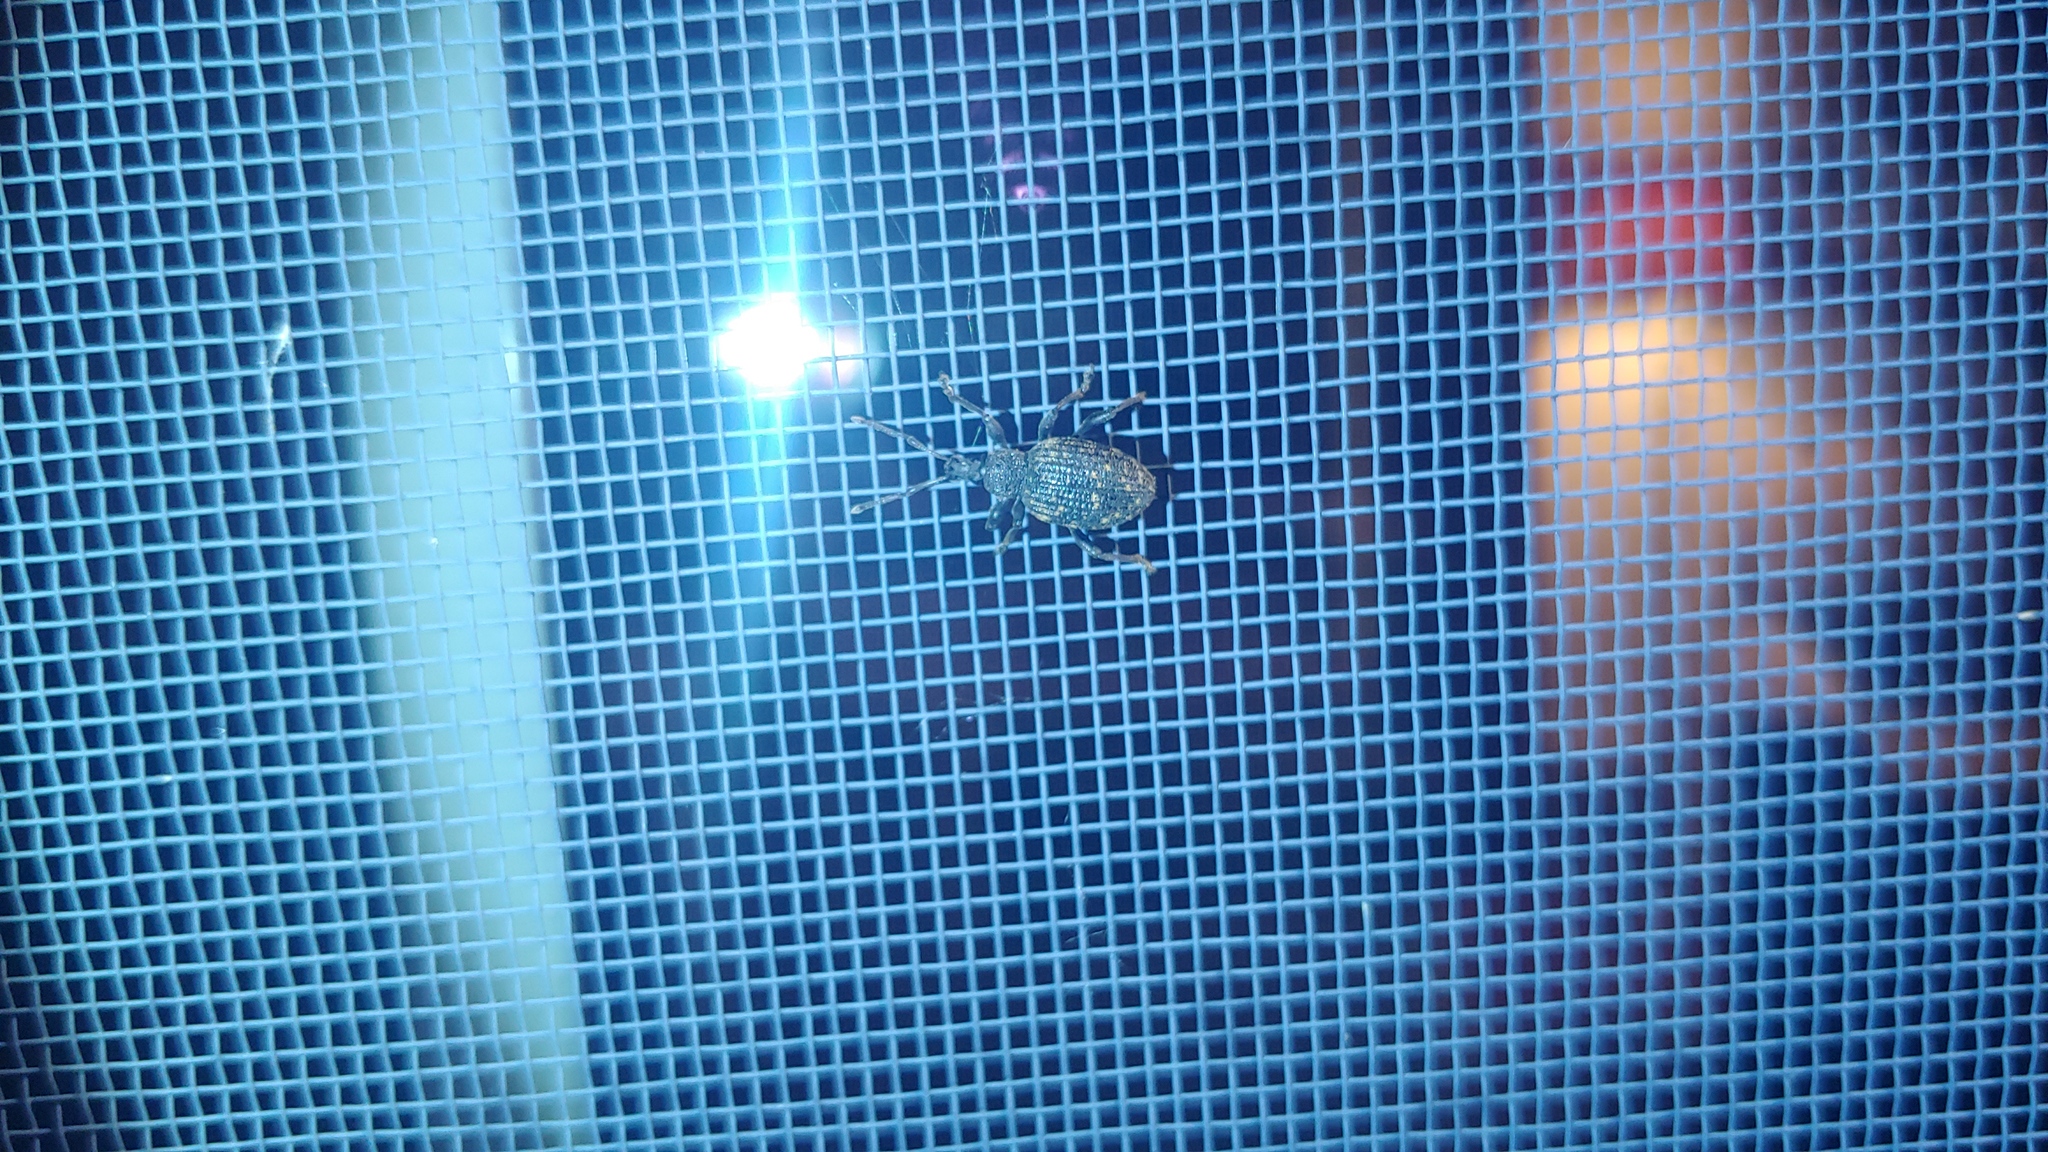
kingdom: Animalia
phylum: Arthropoda
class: Insecta
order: Coleoptera
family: Curculionidae
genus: Otiorhynchus
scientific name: Otiorhynchus sulcatus
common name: Black vine weevil
